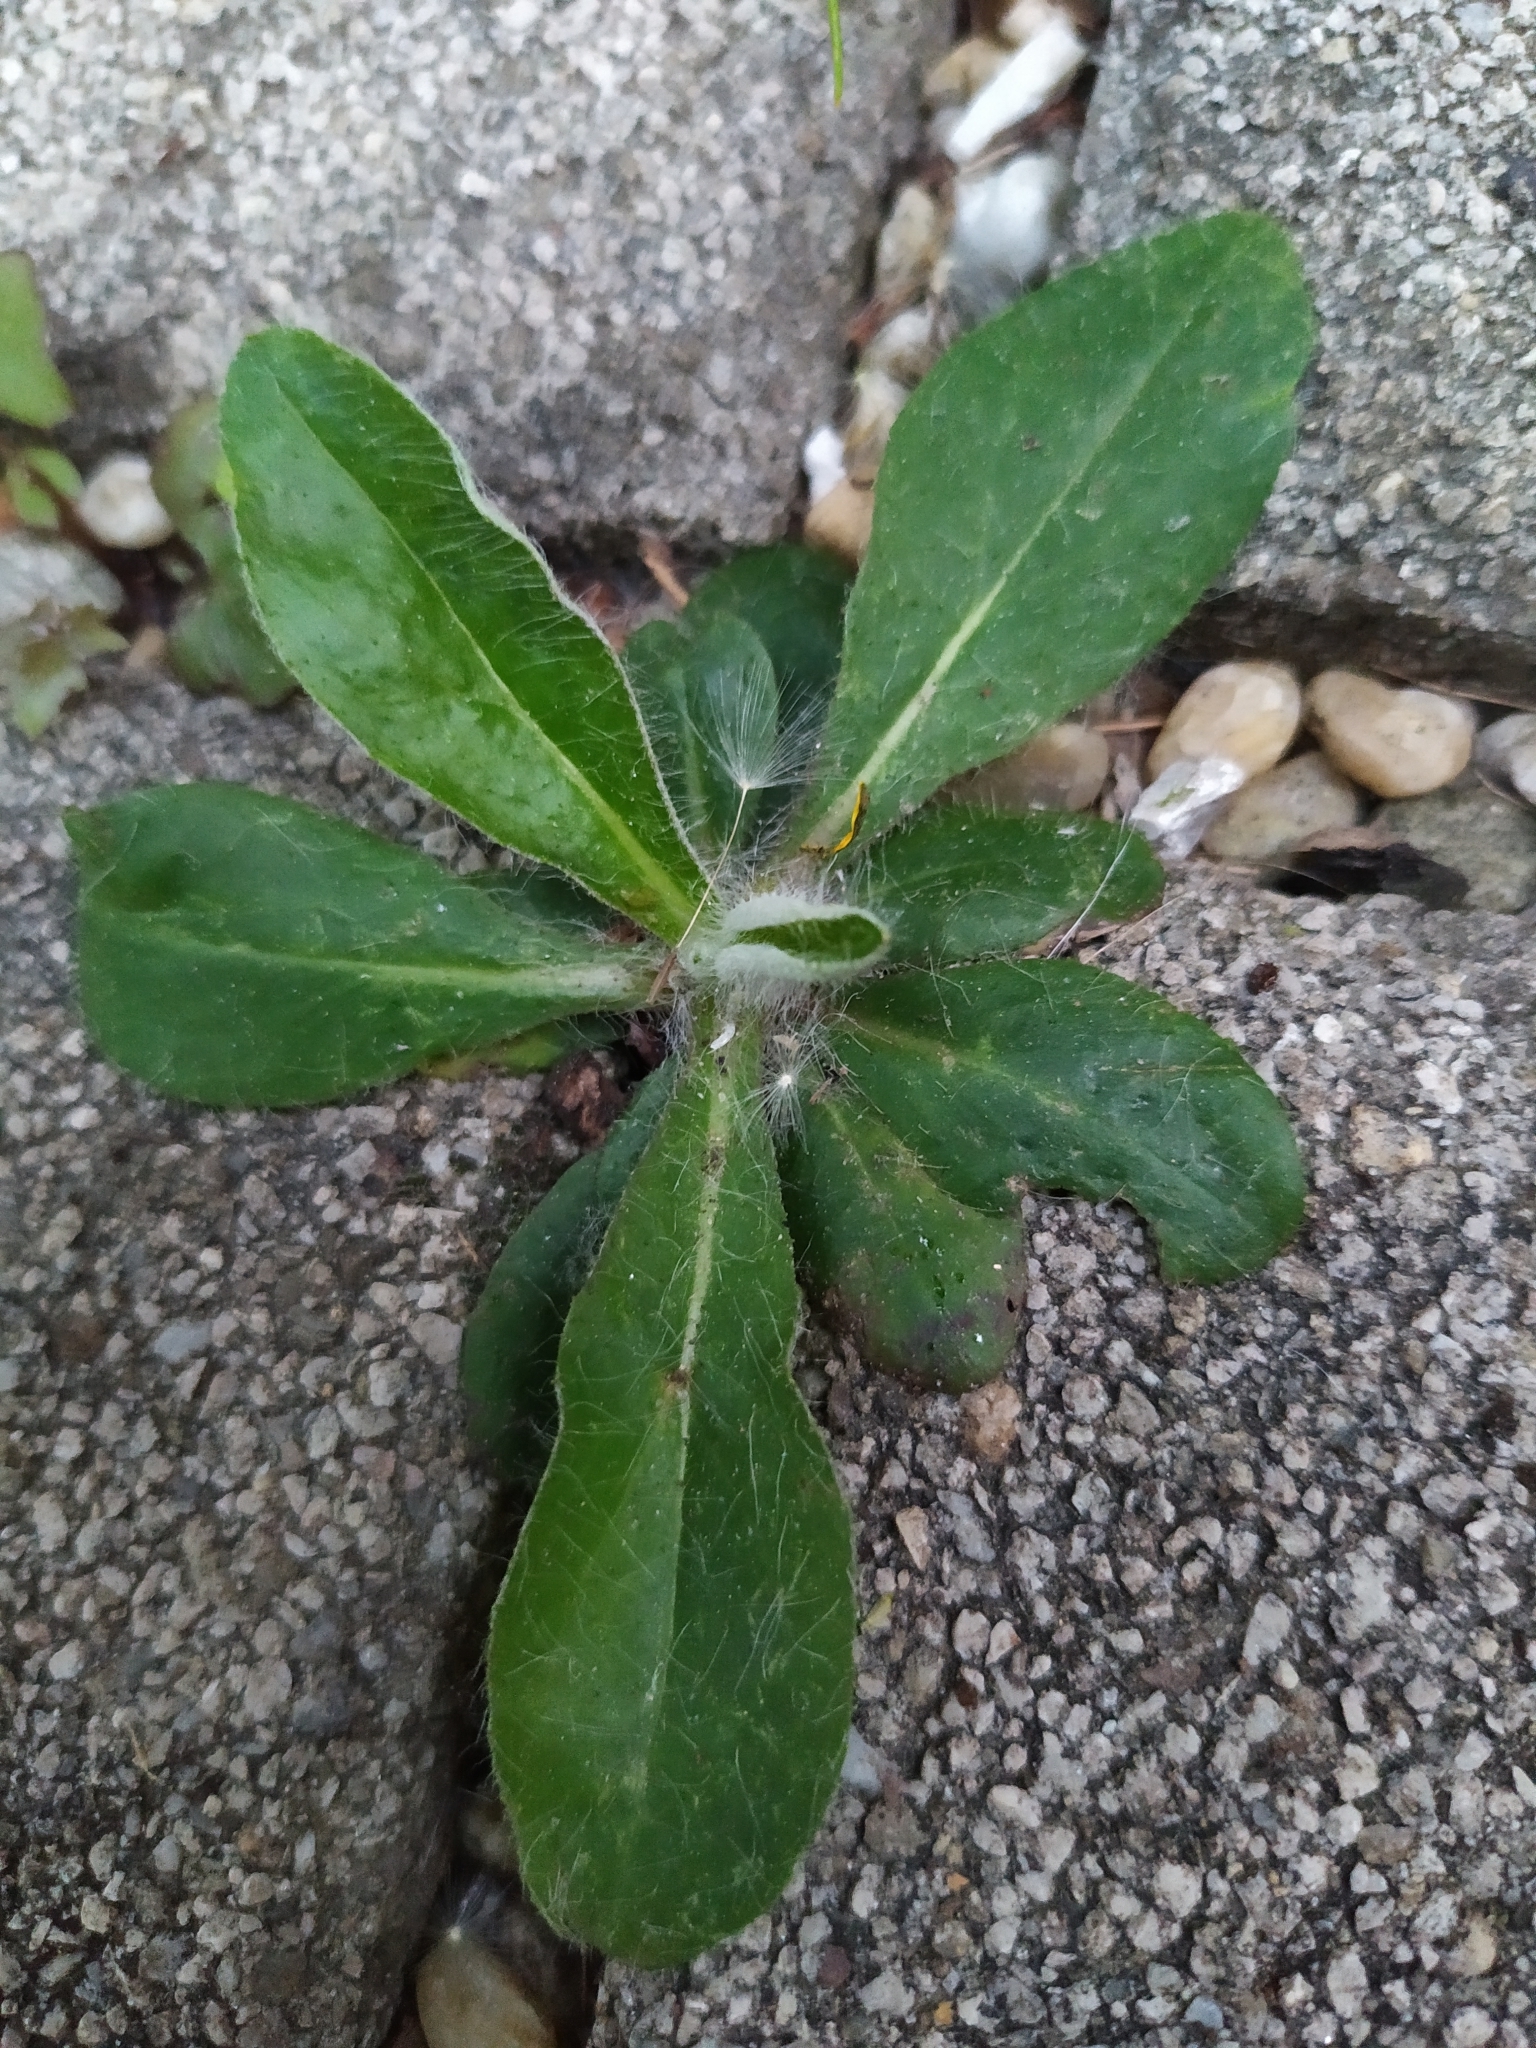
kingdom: Plantae
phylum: Tracheophyta
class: Magnoliopsida
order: Asterales
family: Asteraceae
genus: Pilosella
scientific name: Pilosella officinarum
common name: Mouse-ear hawkweed
